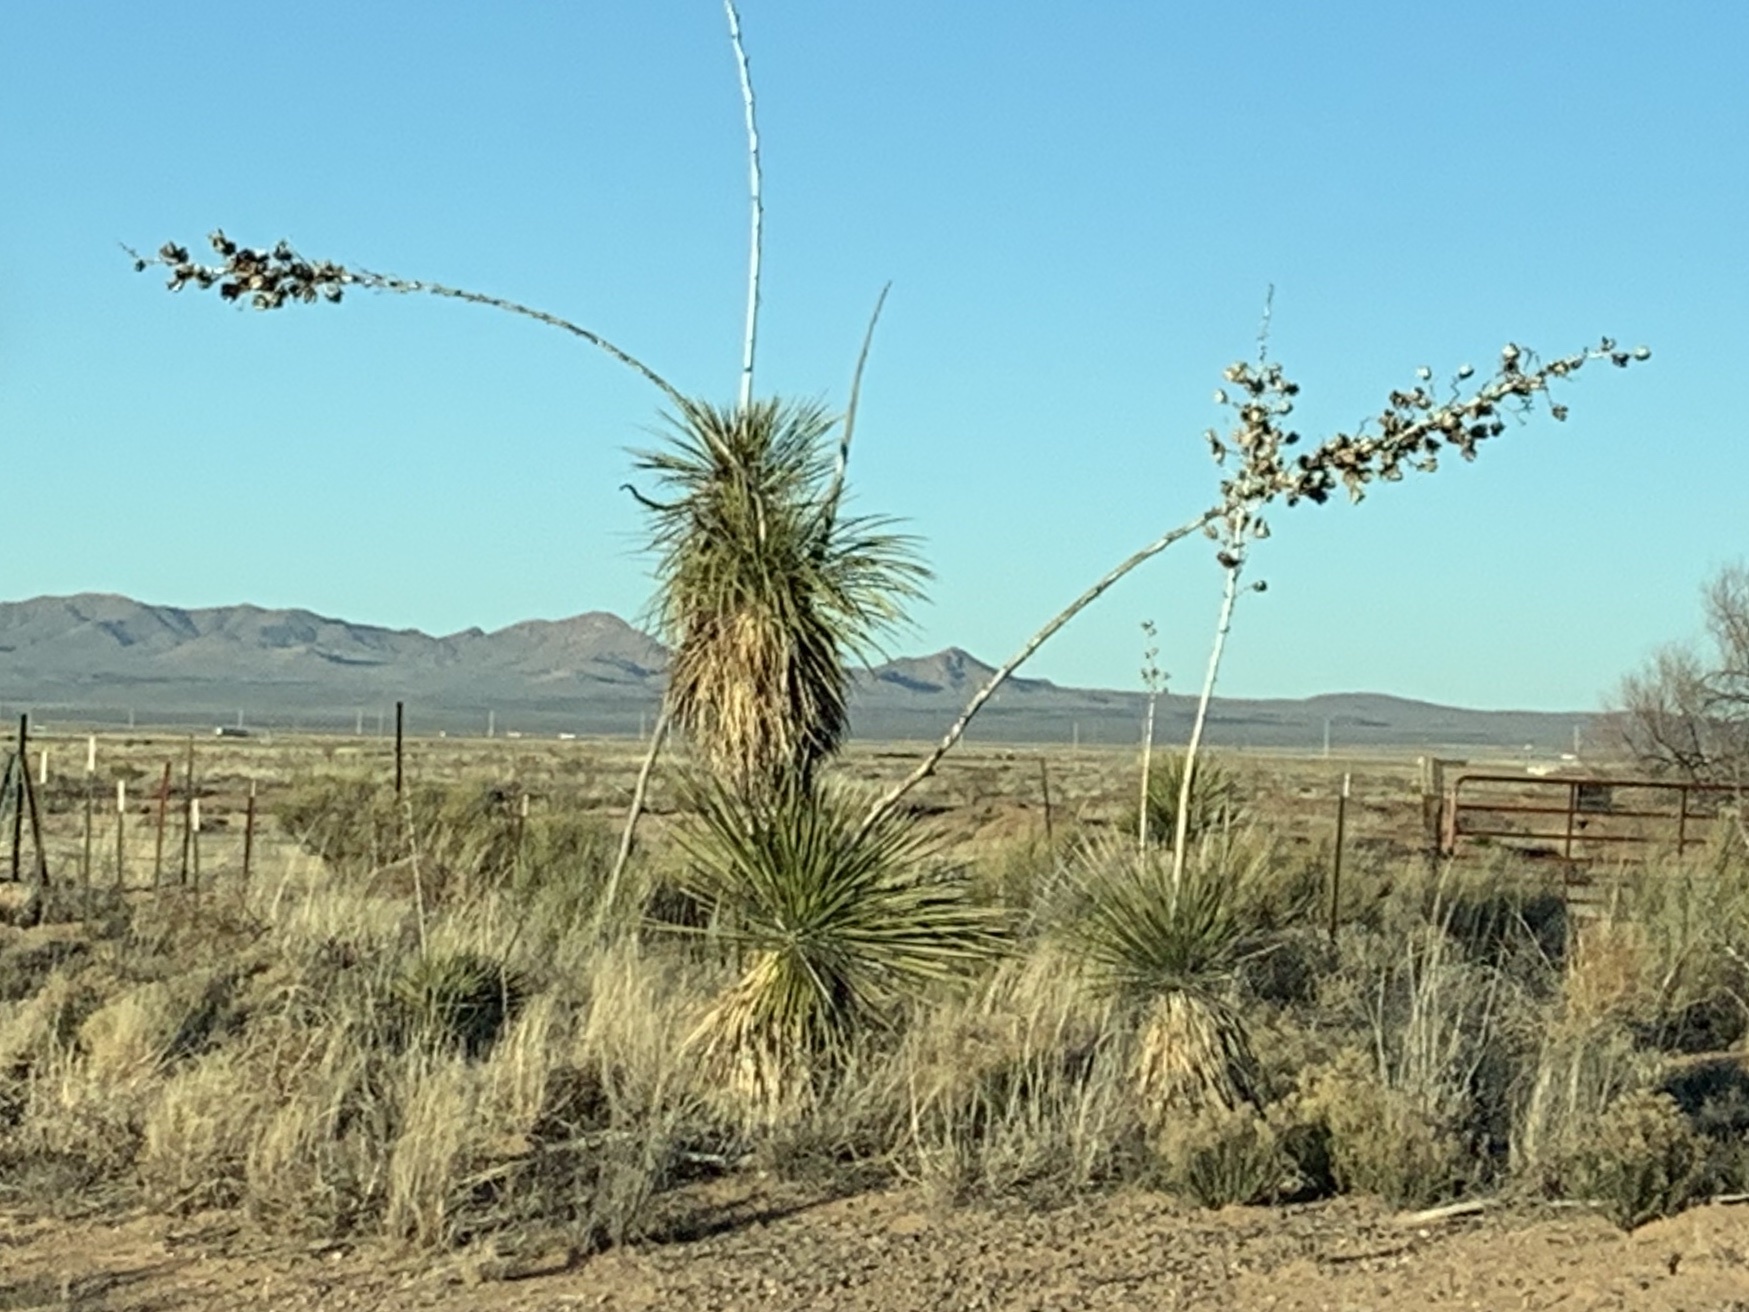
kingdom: Plantae
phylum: Tracheophyta
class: Liliopsida
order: Asparagales
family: Asparagaceae
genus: Yucca
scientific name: Yucca elata
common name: Palmella
